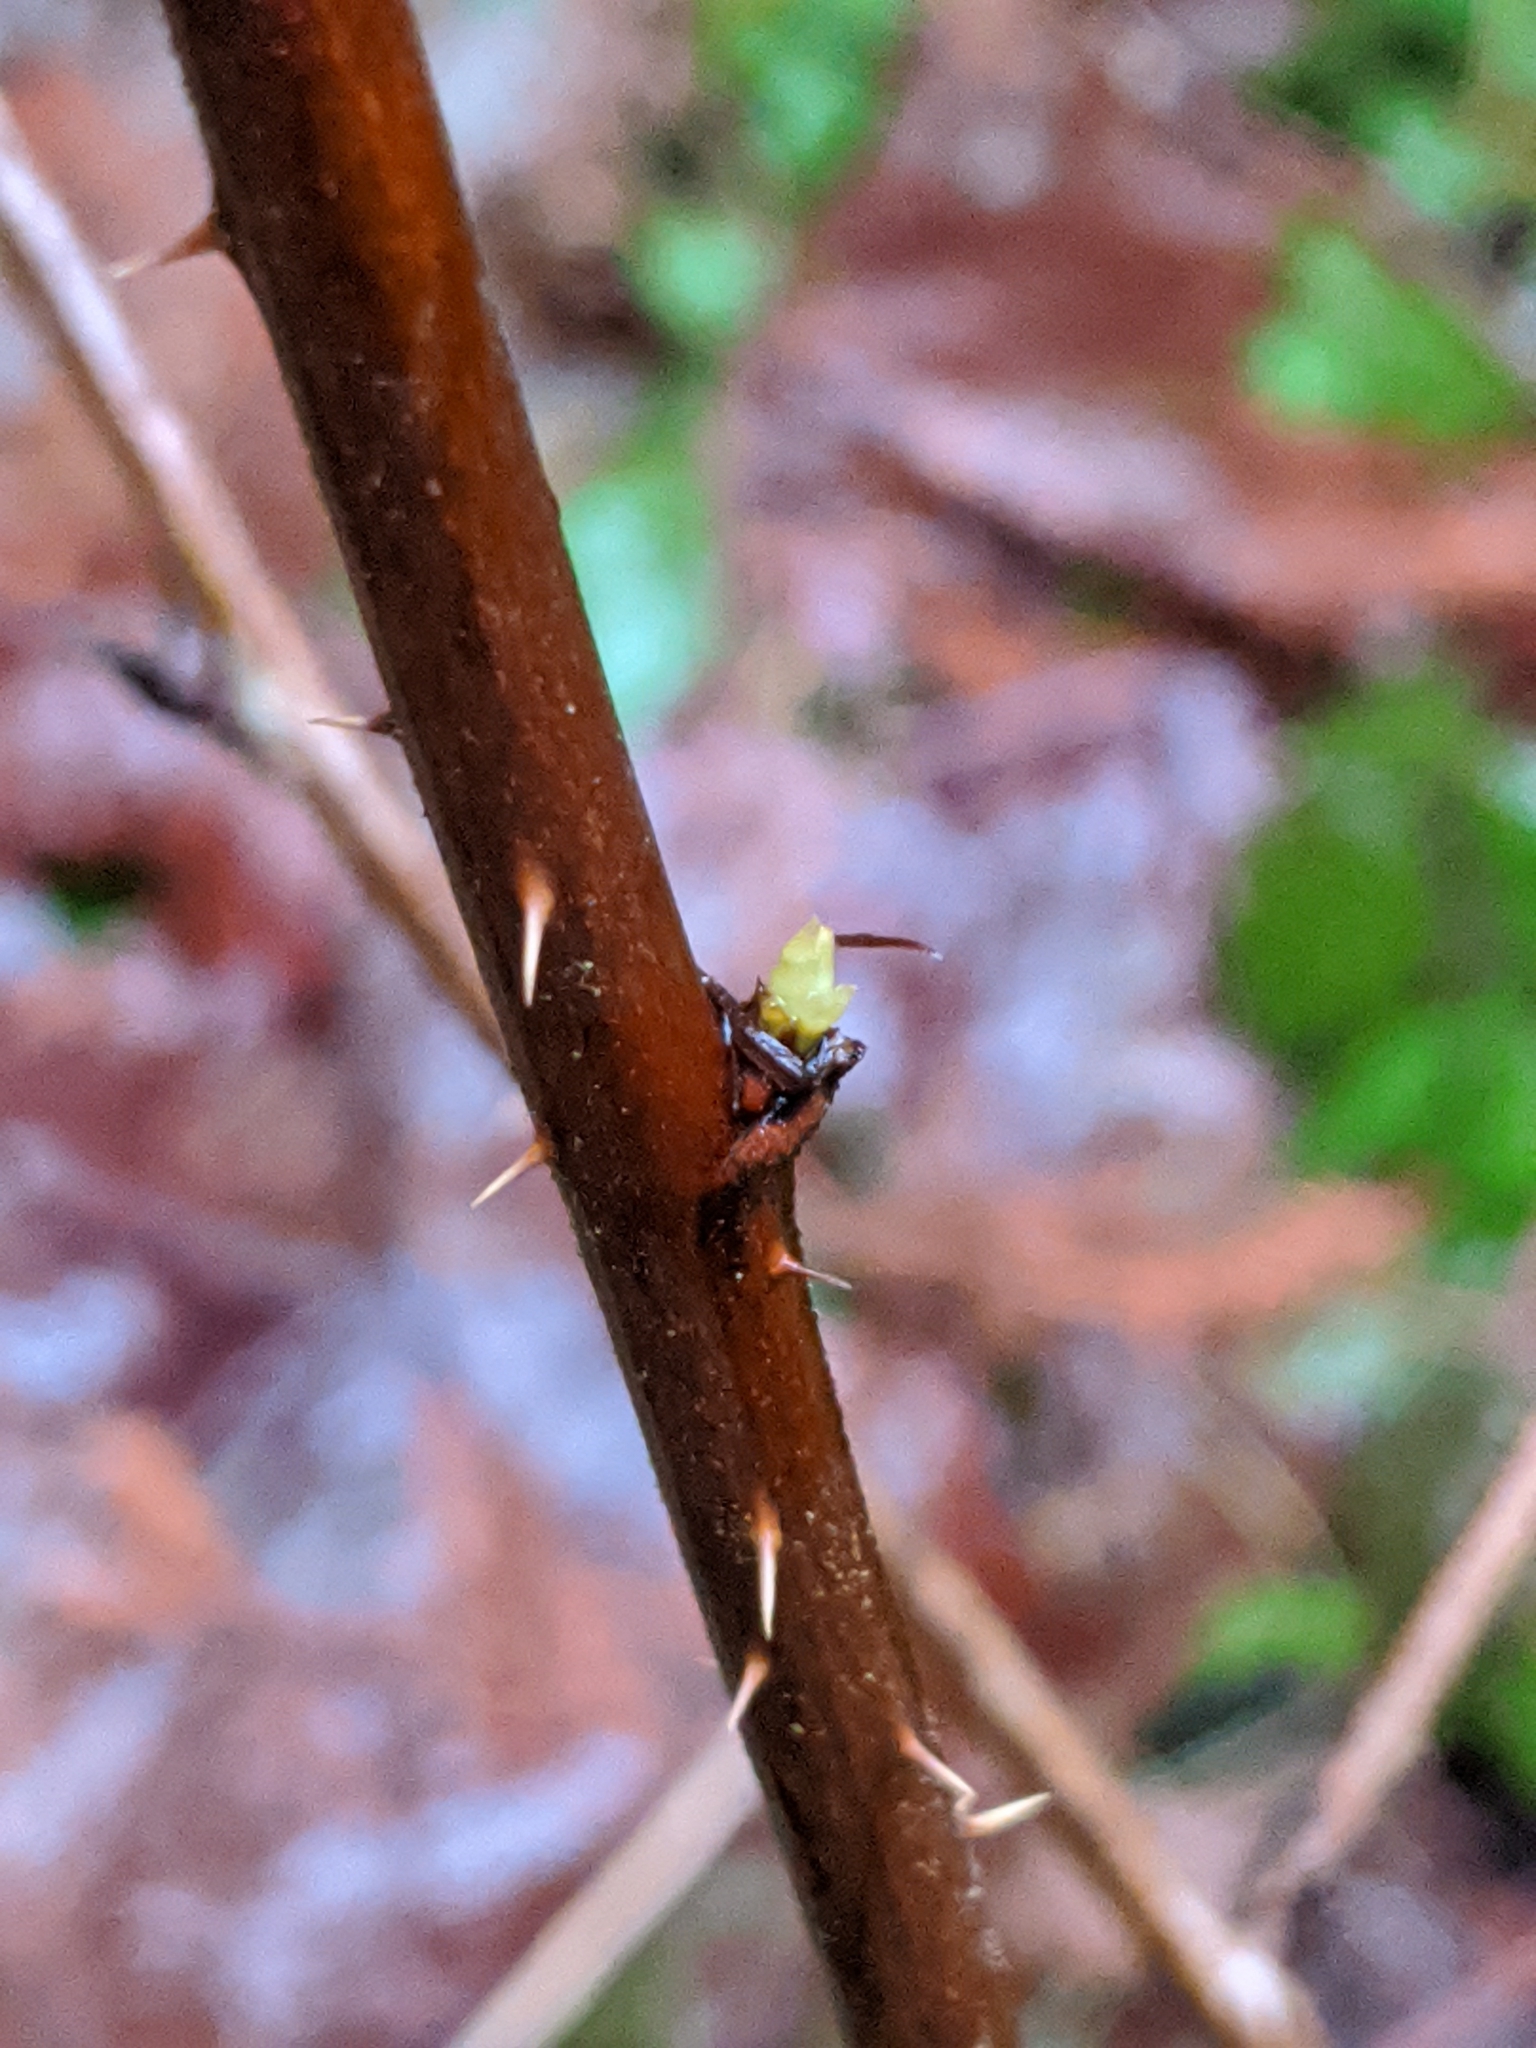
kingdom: Plantae
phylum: Tracheophyta
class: Magnoliopsida
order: Rosales
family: Rosaceae
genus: Rubus
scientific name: Rubus spectabilis
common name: Salmonberry
